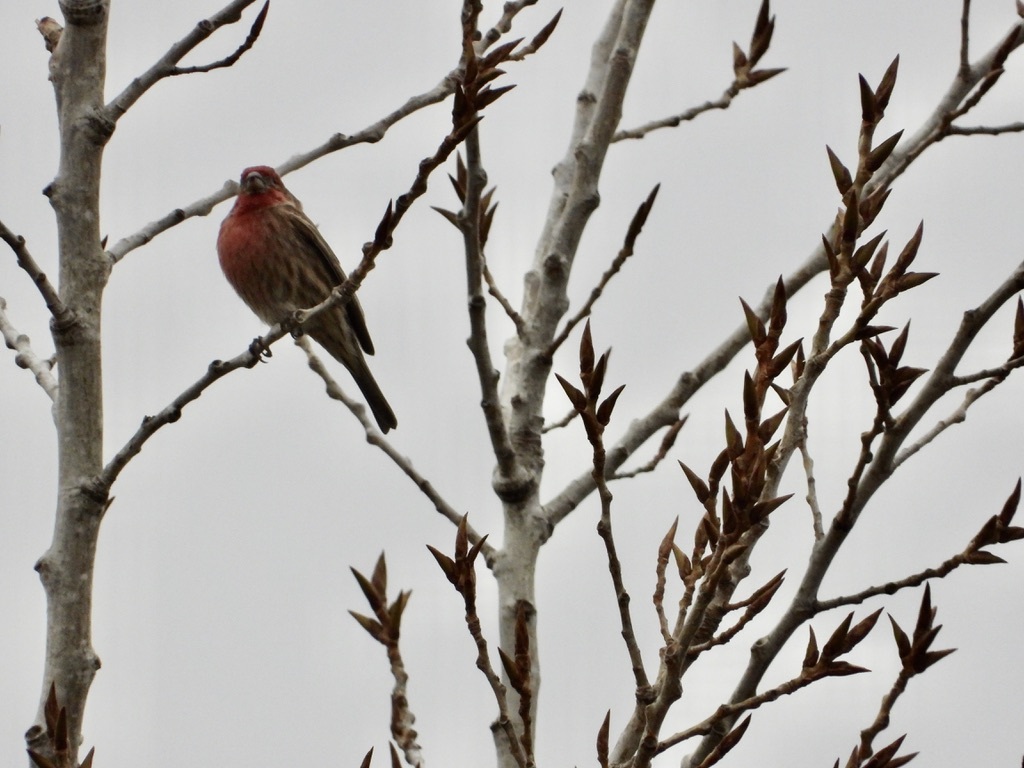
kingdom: Animalia
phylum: Chordata
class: Aves
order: Passeriformes
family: Fringillidae
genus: Haemorhous
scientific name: Haemorhous mexicanus
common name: House finch
